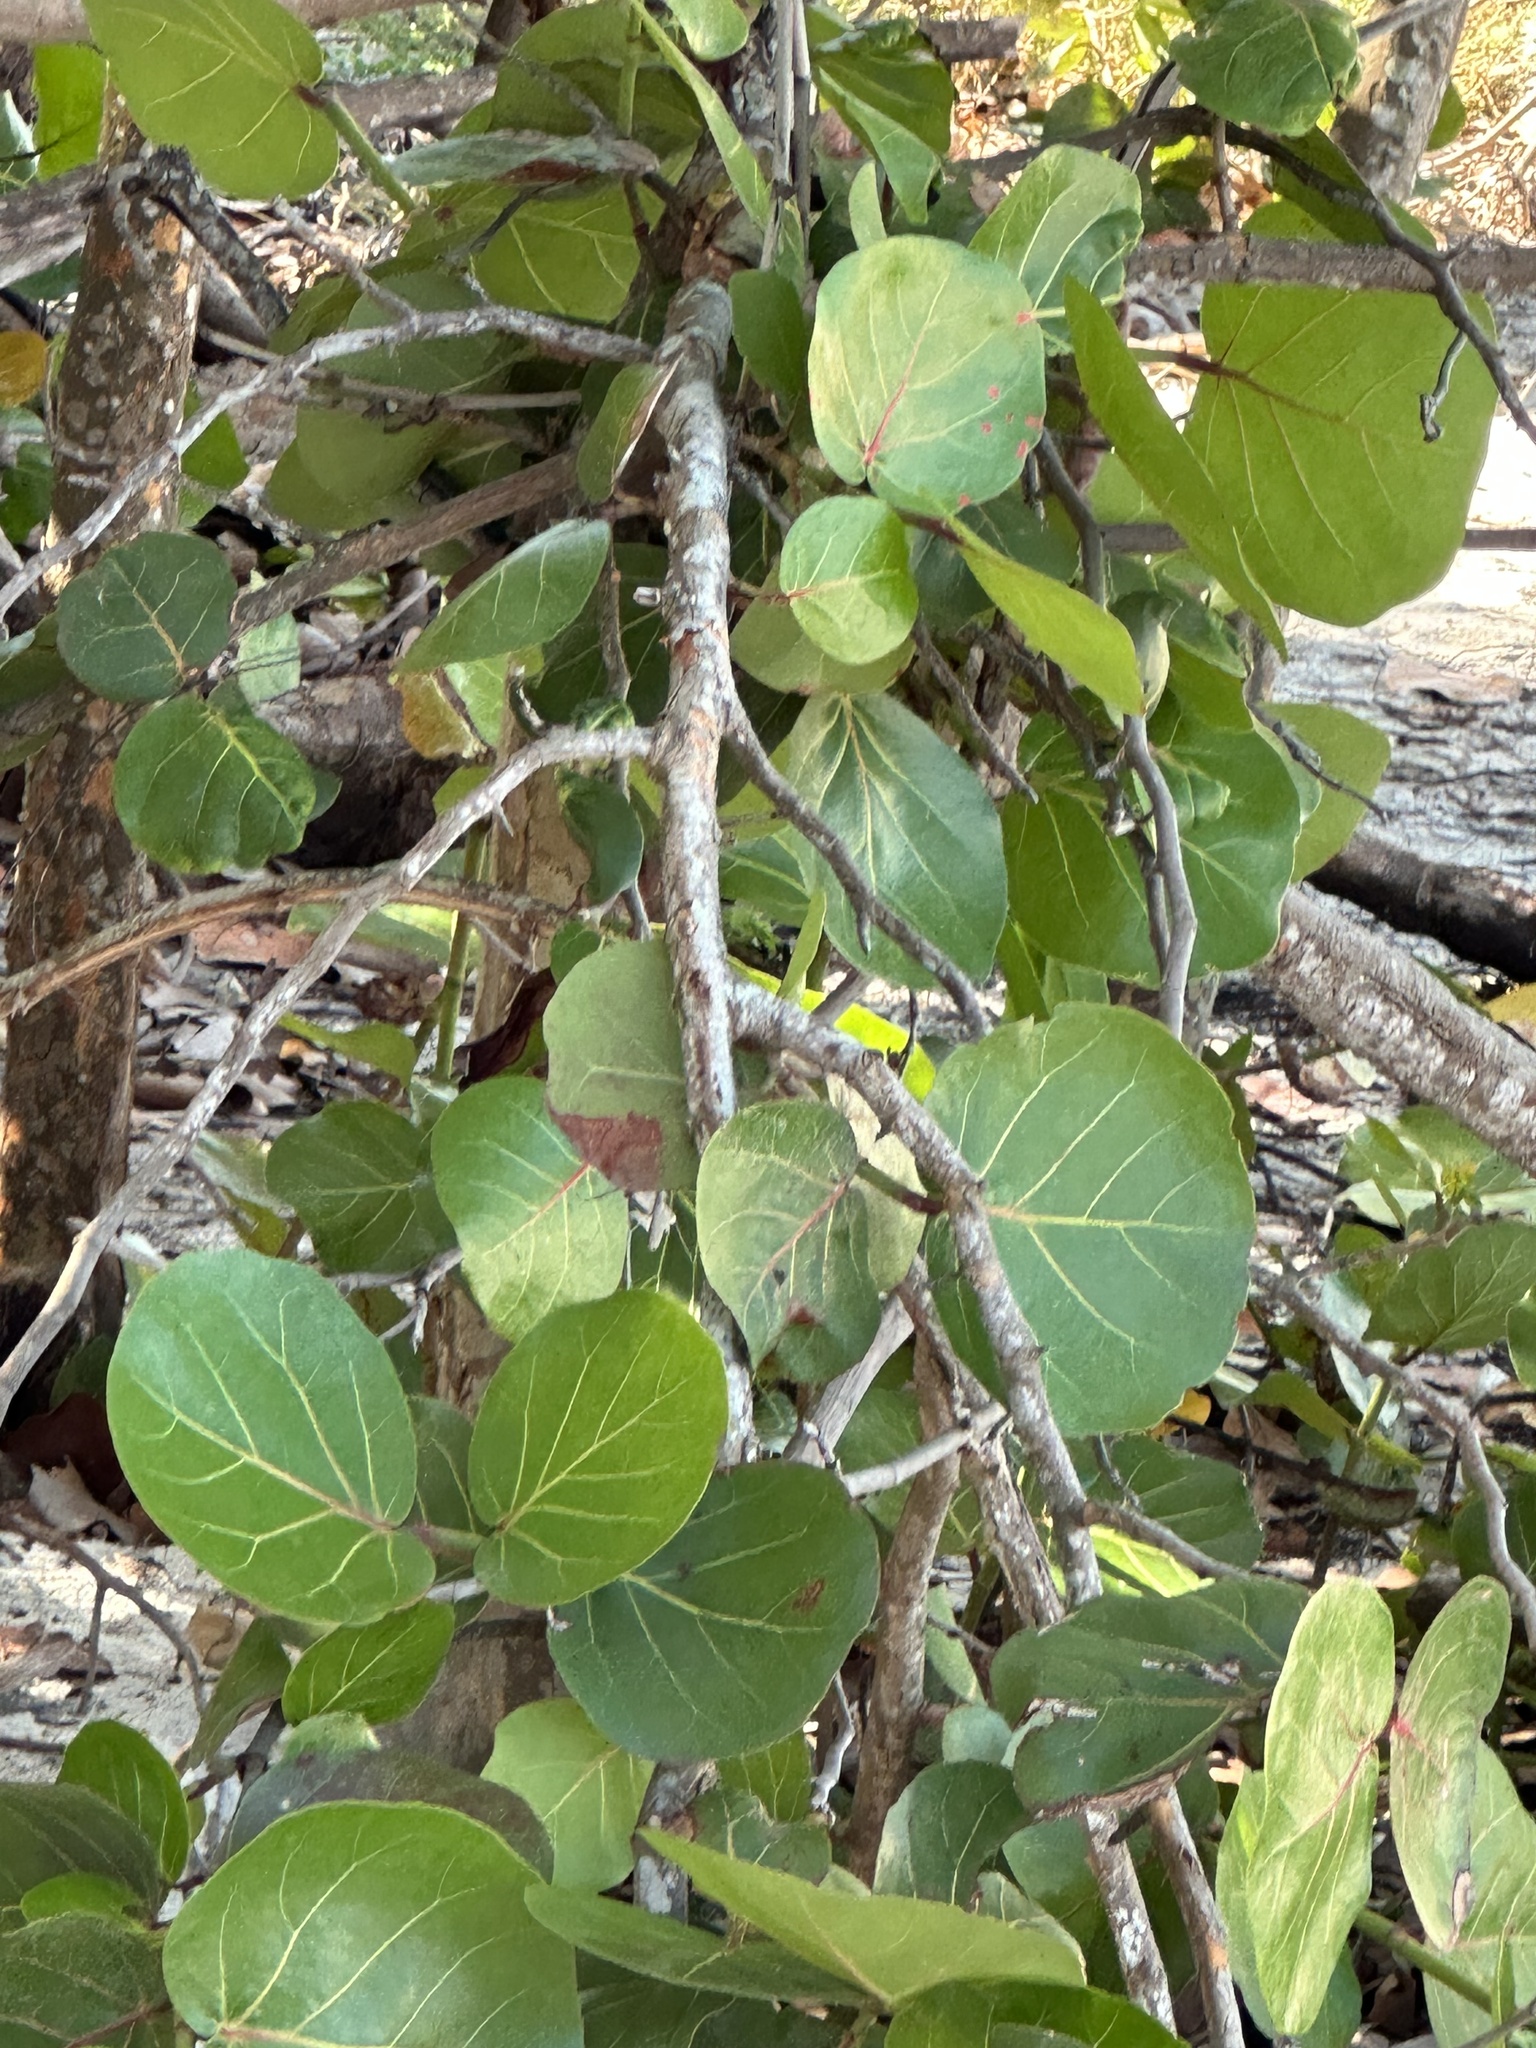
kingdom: Plantae
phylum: Tracheophyta
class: Magnoliopsida
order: Caryophyllales
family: Polygonaceae
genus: Coccoloba
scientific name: Coccoloba uvifera
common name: Seagrape
